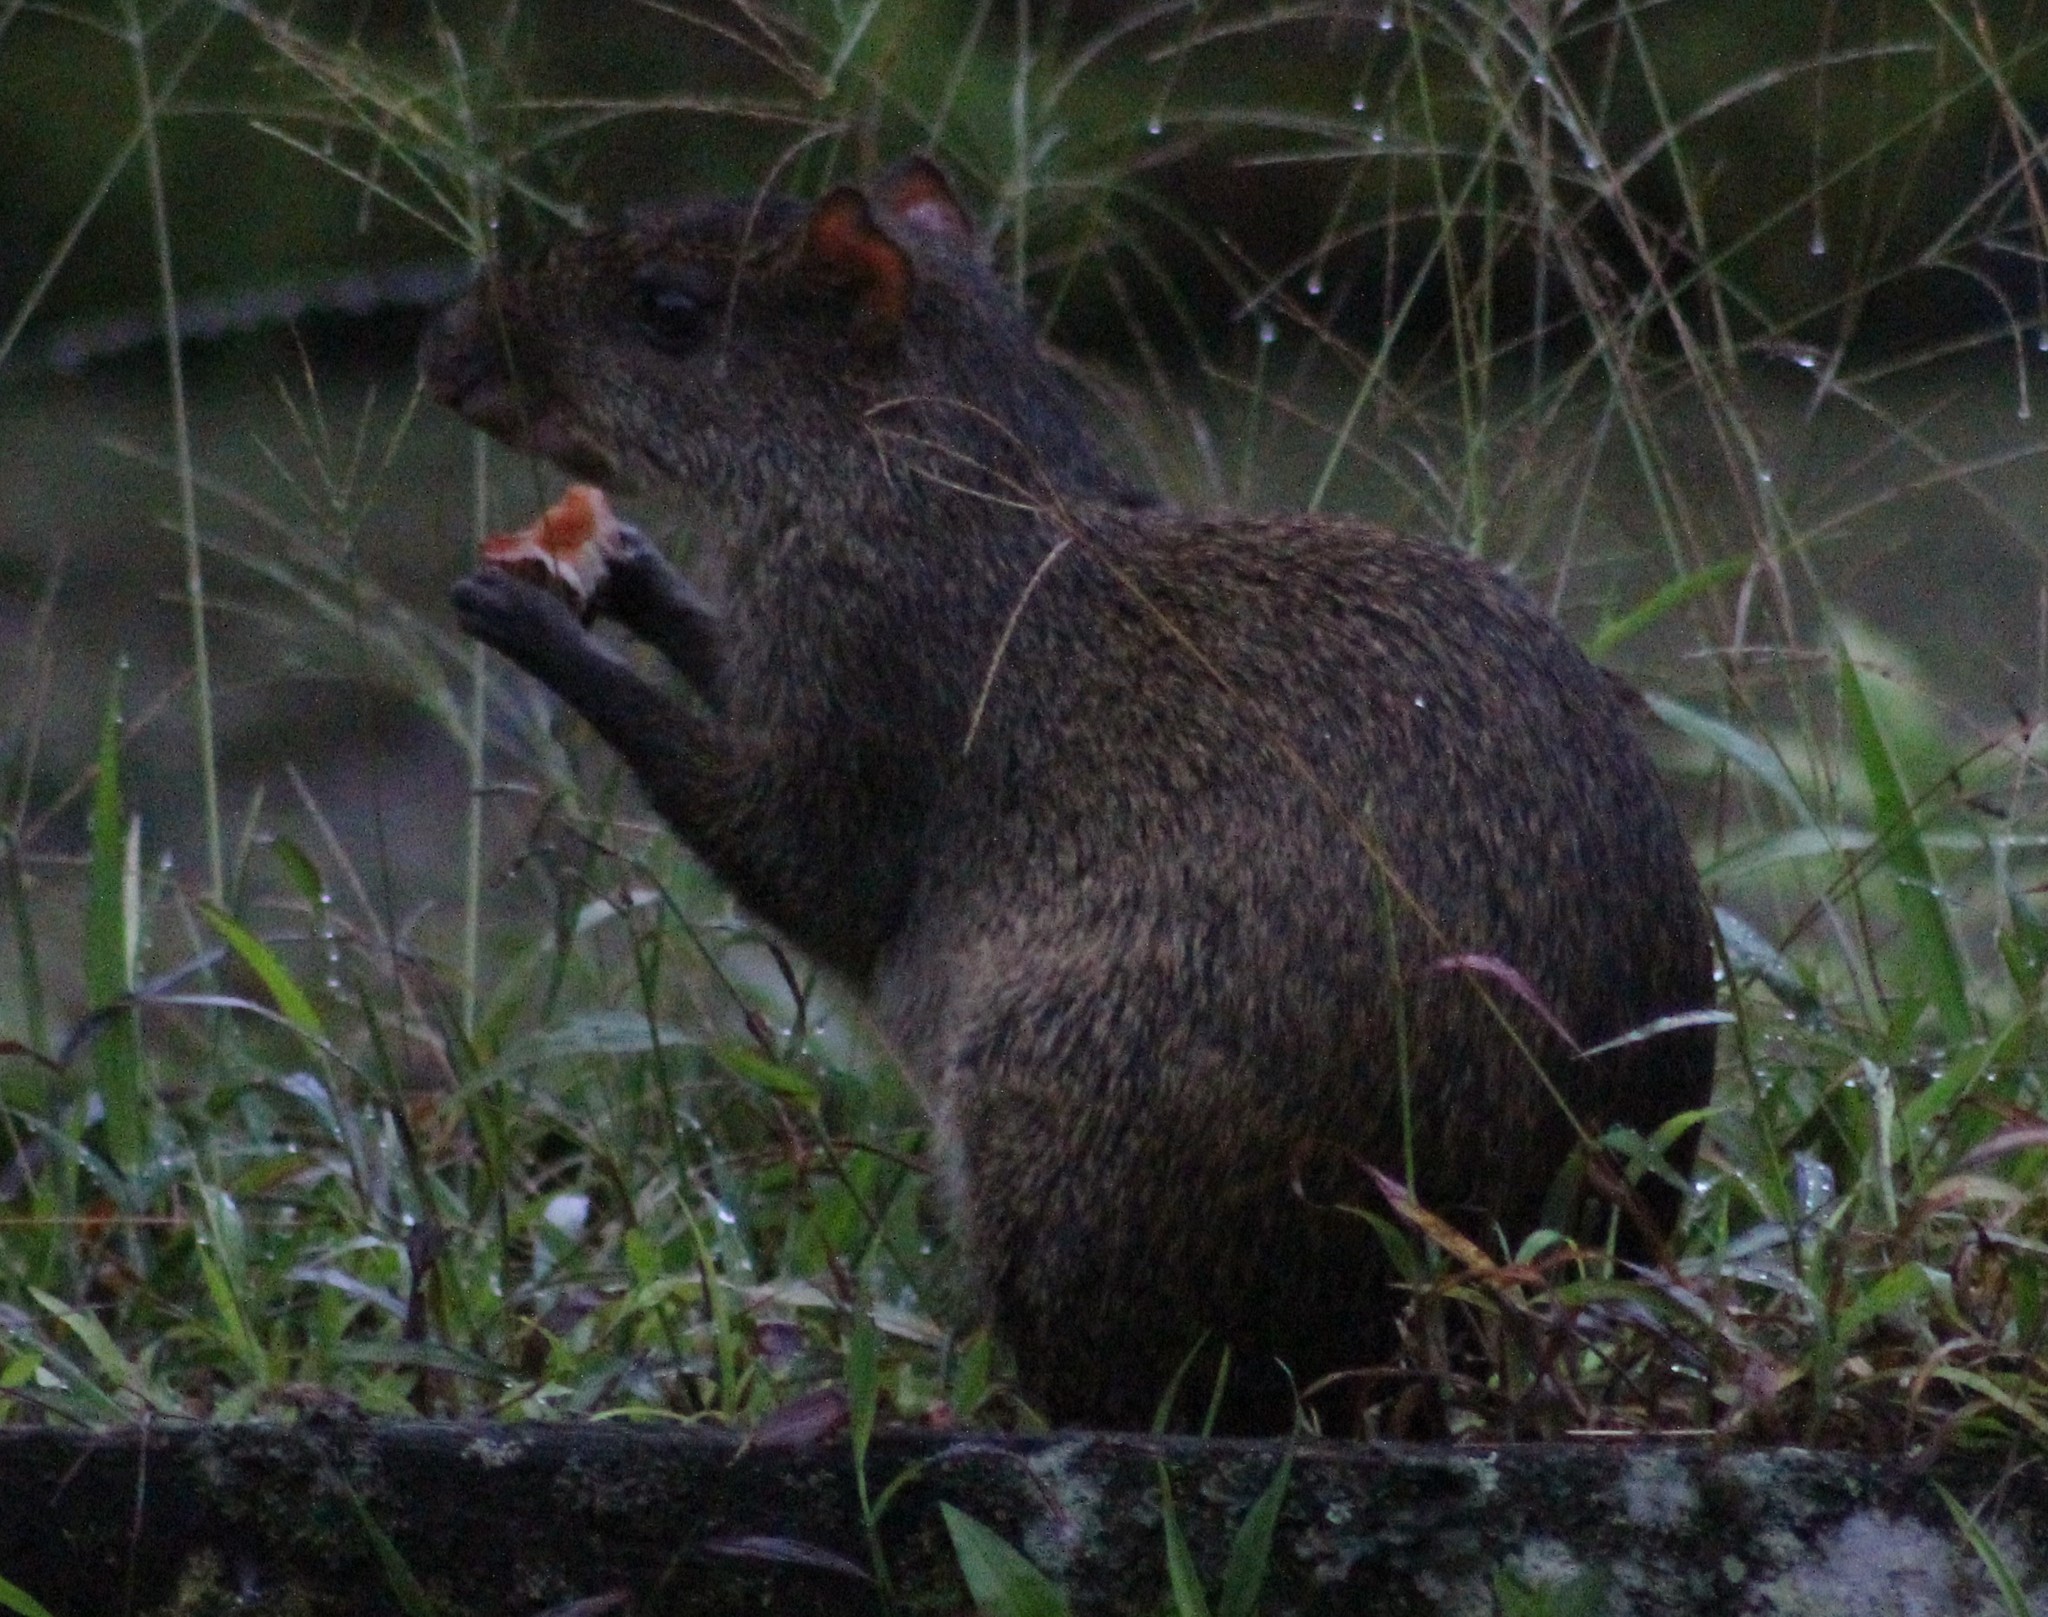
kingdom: Animalia
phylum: Chordata
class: Mammalia
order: Rodentia
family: Dasyproctidae
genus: Dasyprocta
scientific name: Dasyprocta punctata
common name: Central american agouti
